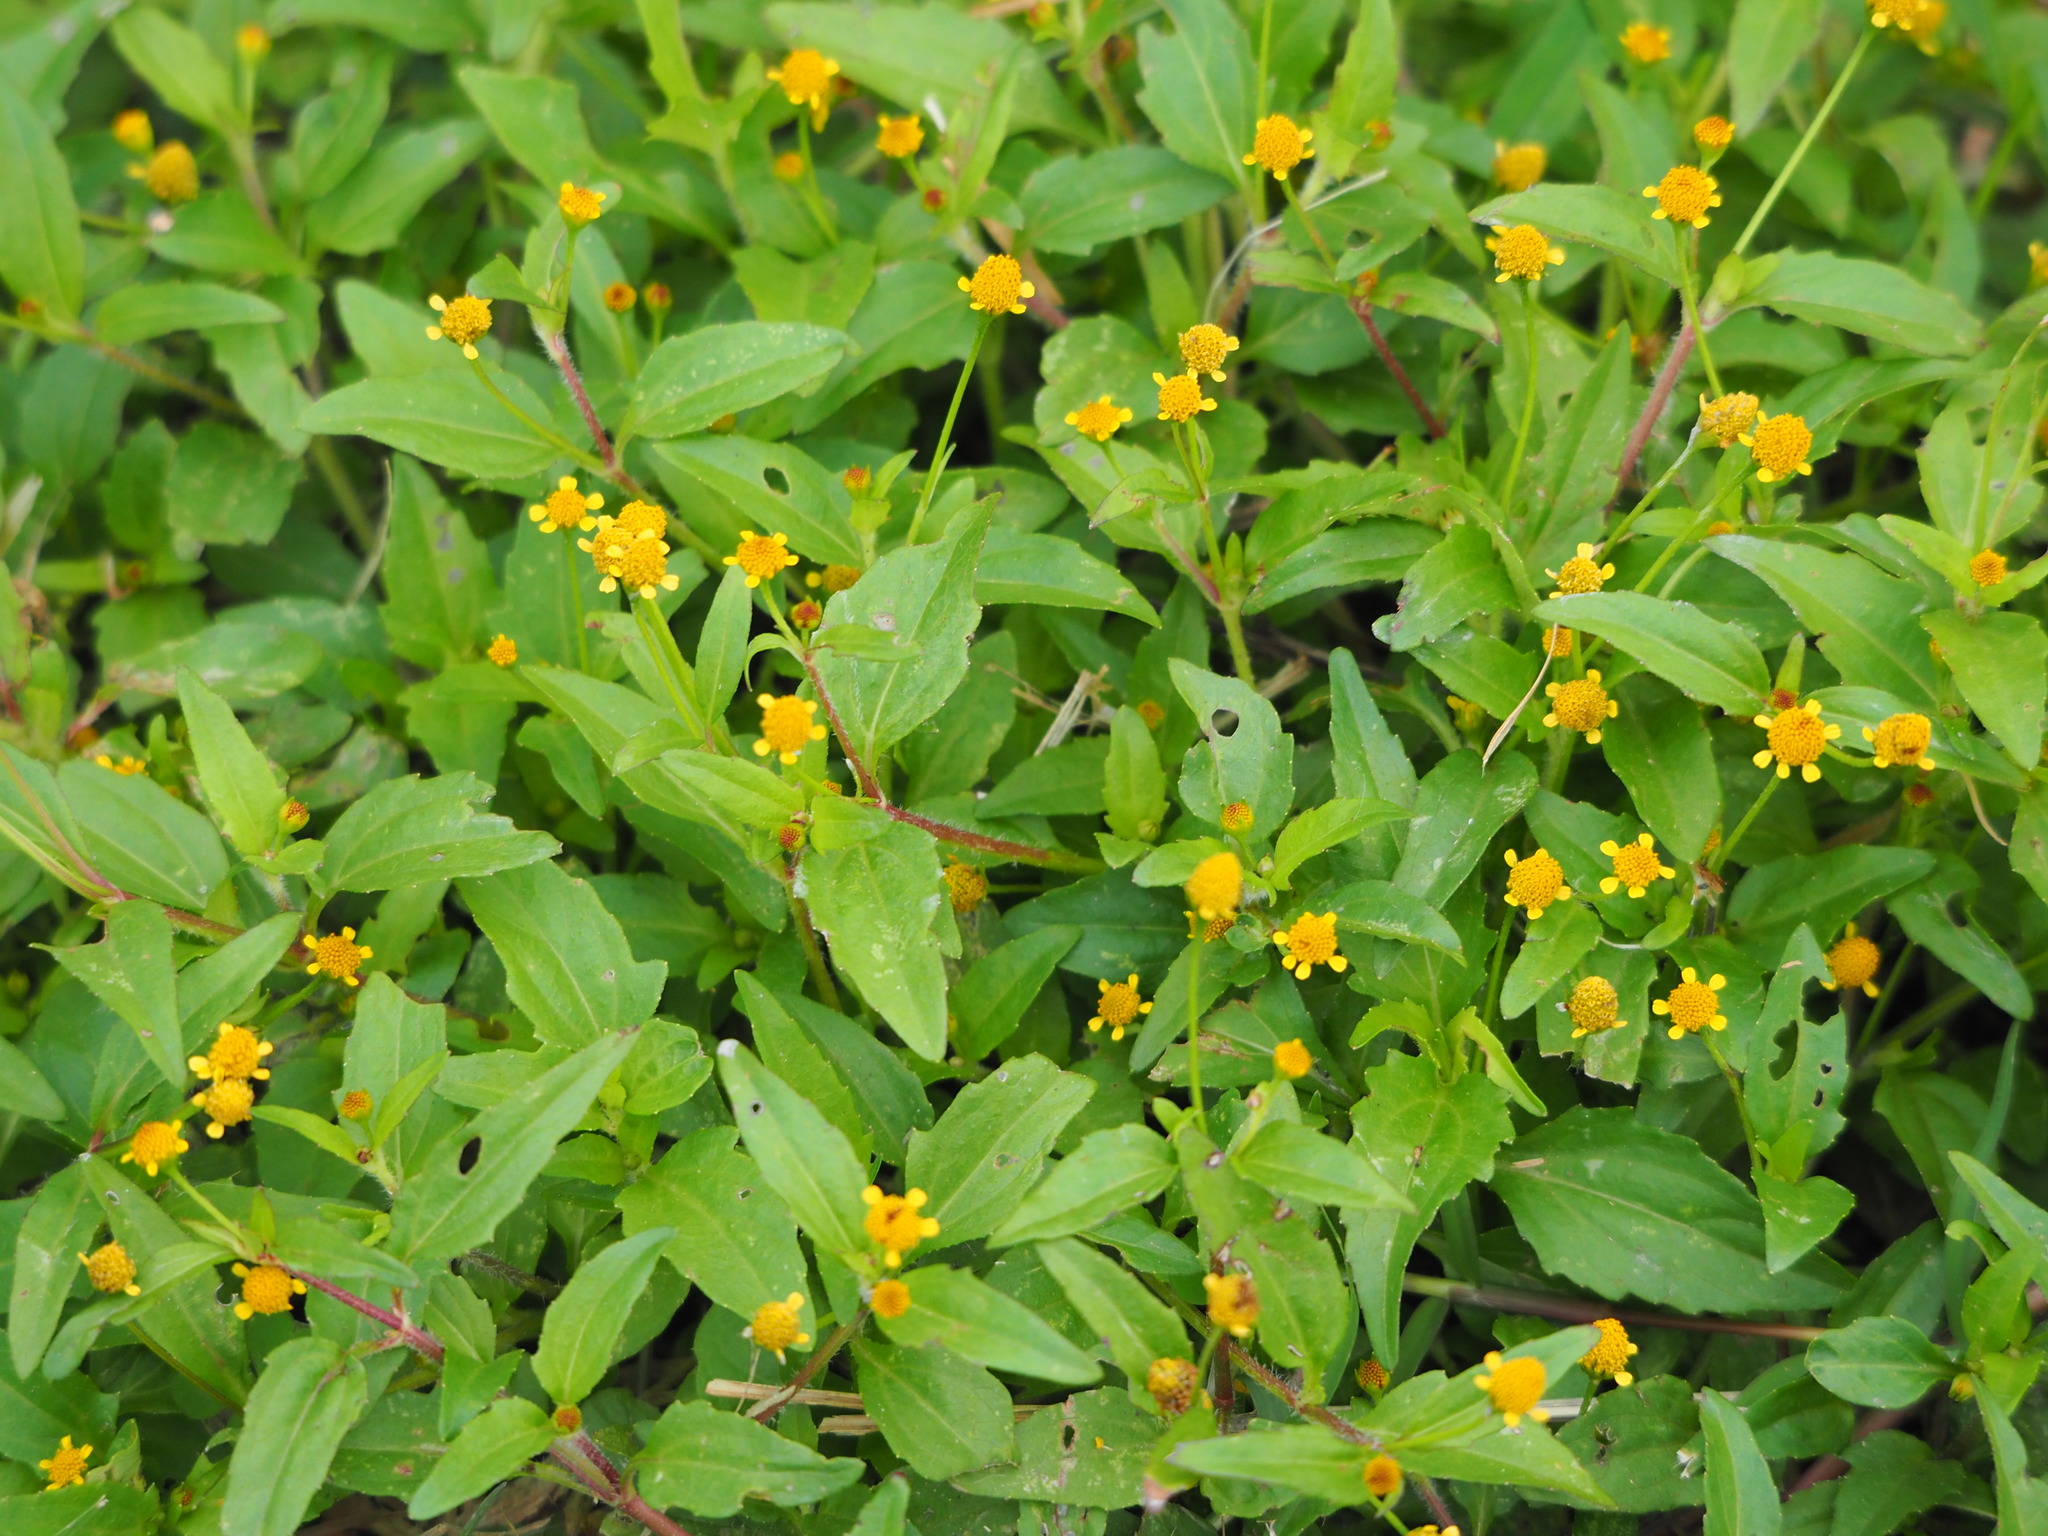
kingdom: Plantae
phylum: Tracheophyta
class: Magnoliopsida
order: Asterales
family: Asteraceae
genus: Acmella
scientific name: Acmella uliginosa
